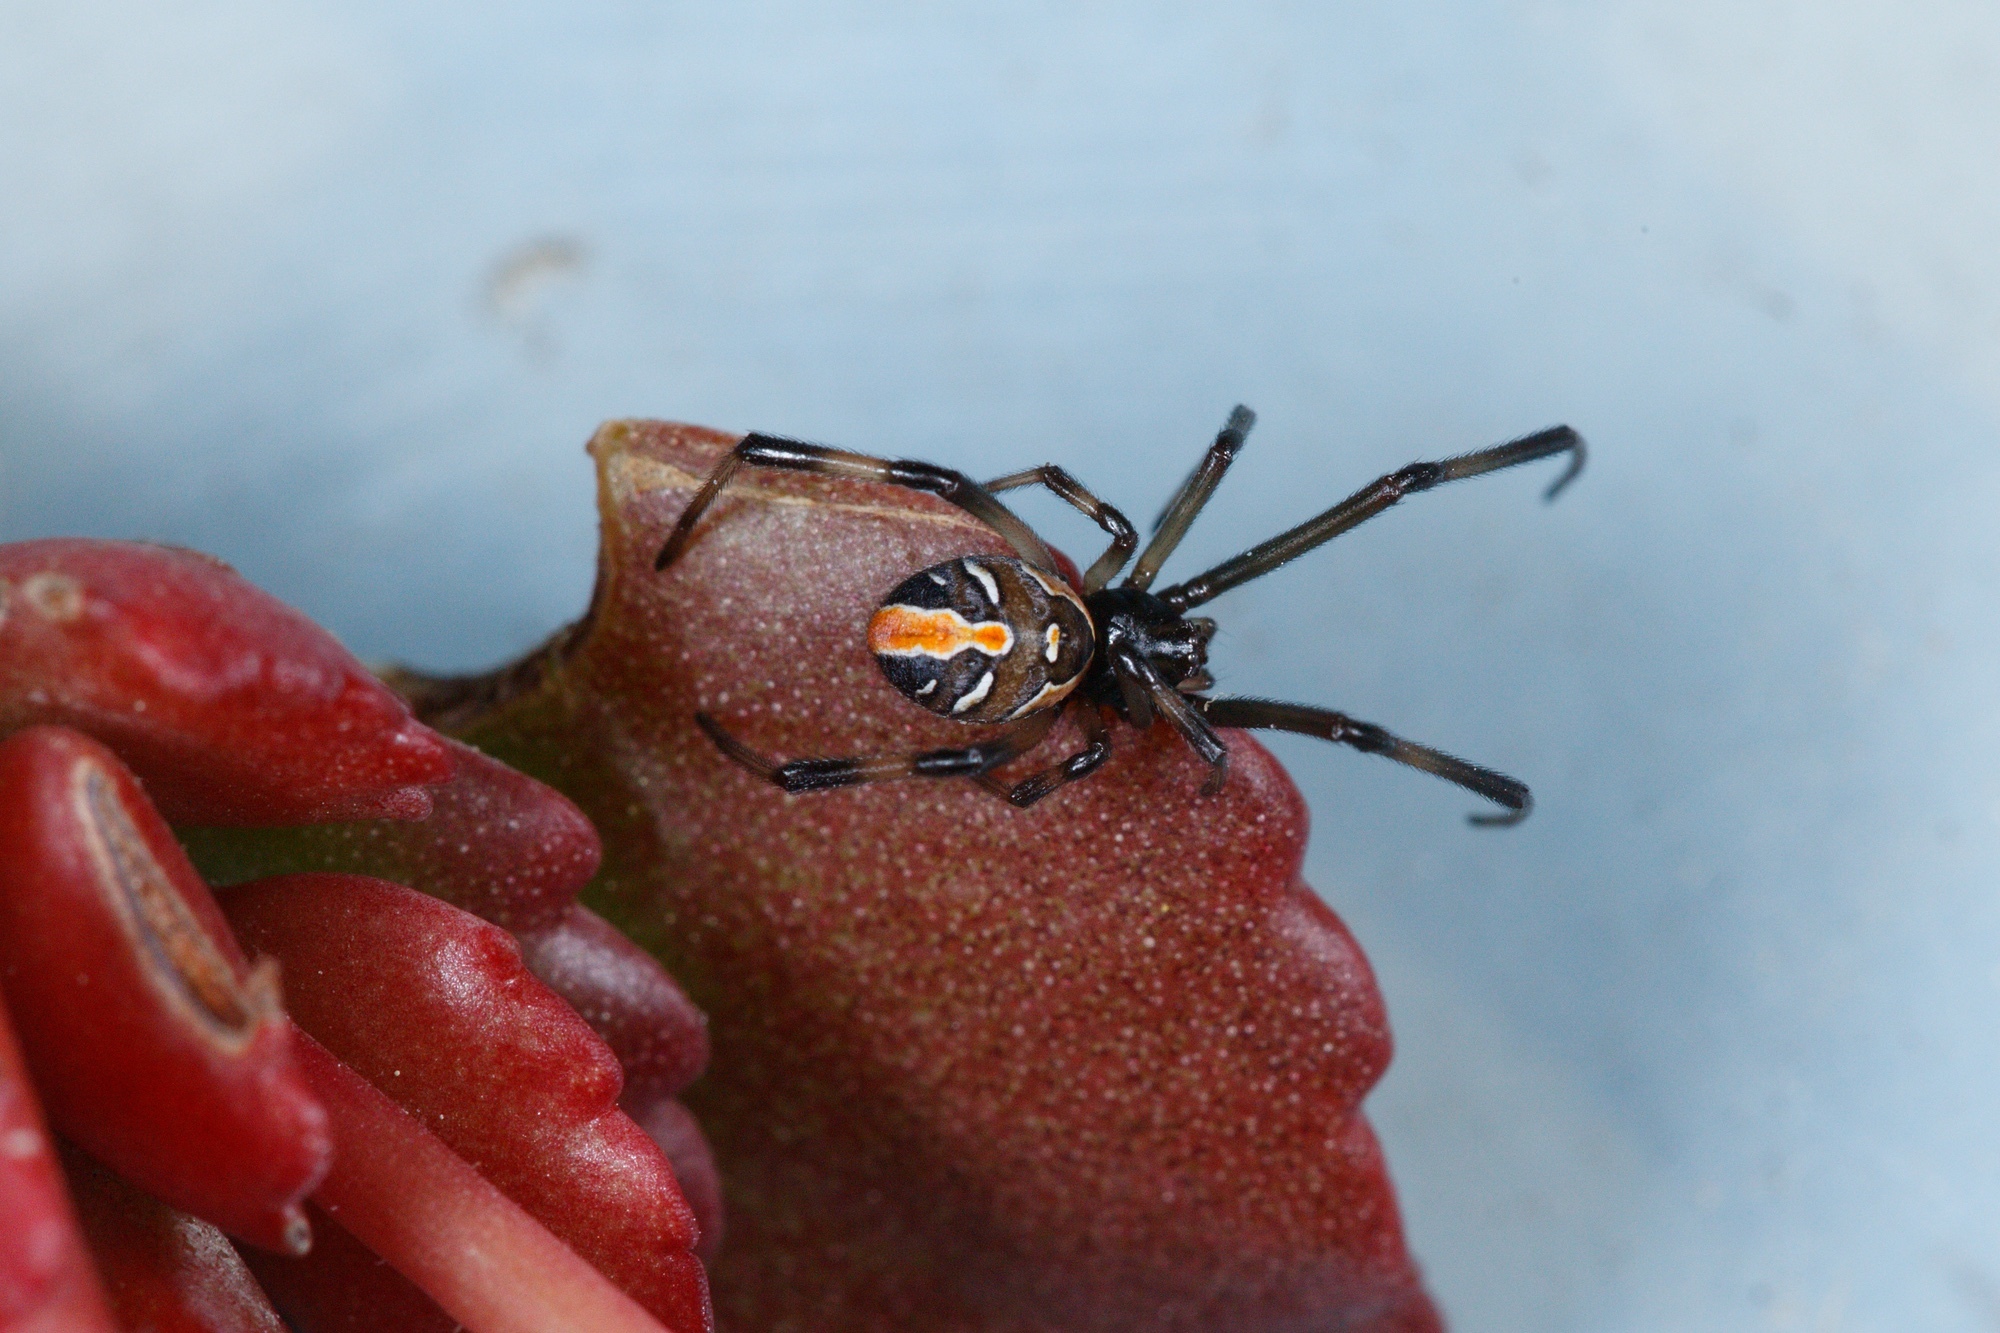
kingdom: Animalia
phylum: Arthropoda
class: Arachnida
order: Araneae
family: Theridiidae
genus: Latrodectus
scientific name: Latrodectus hasselti
